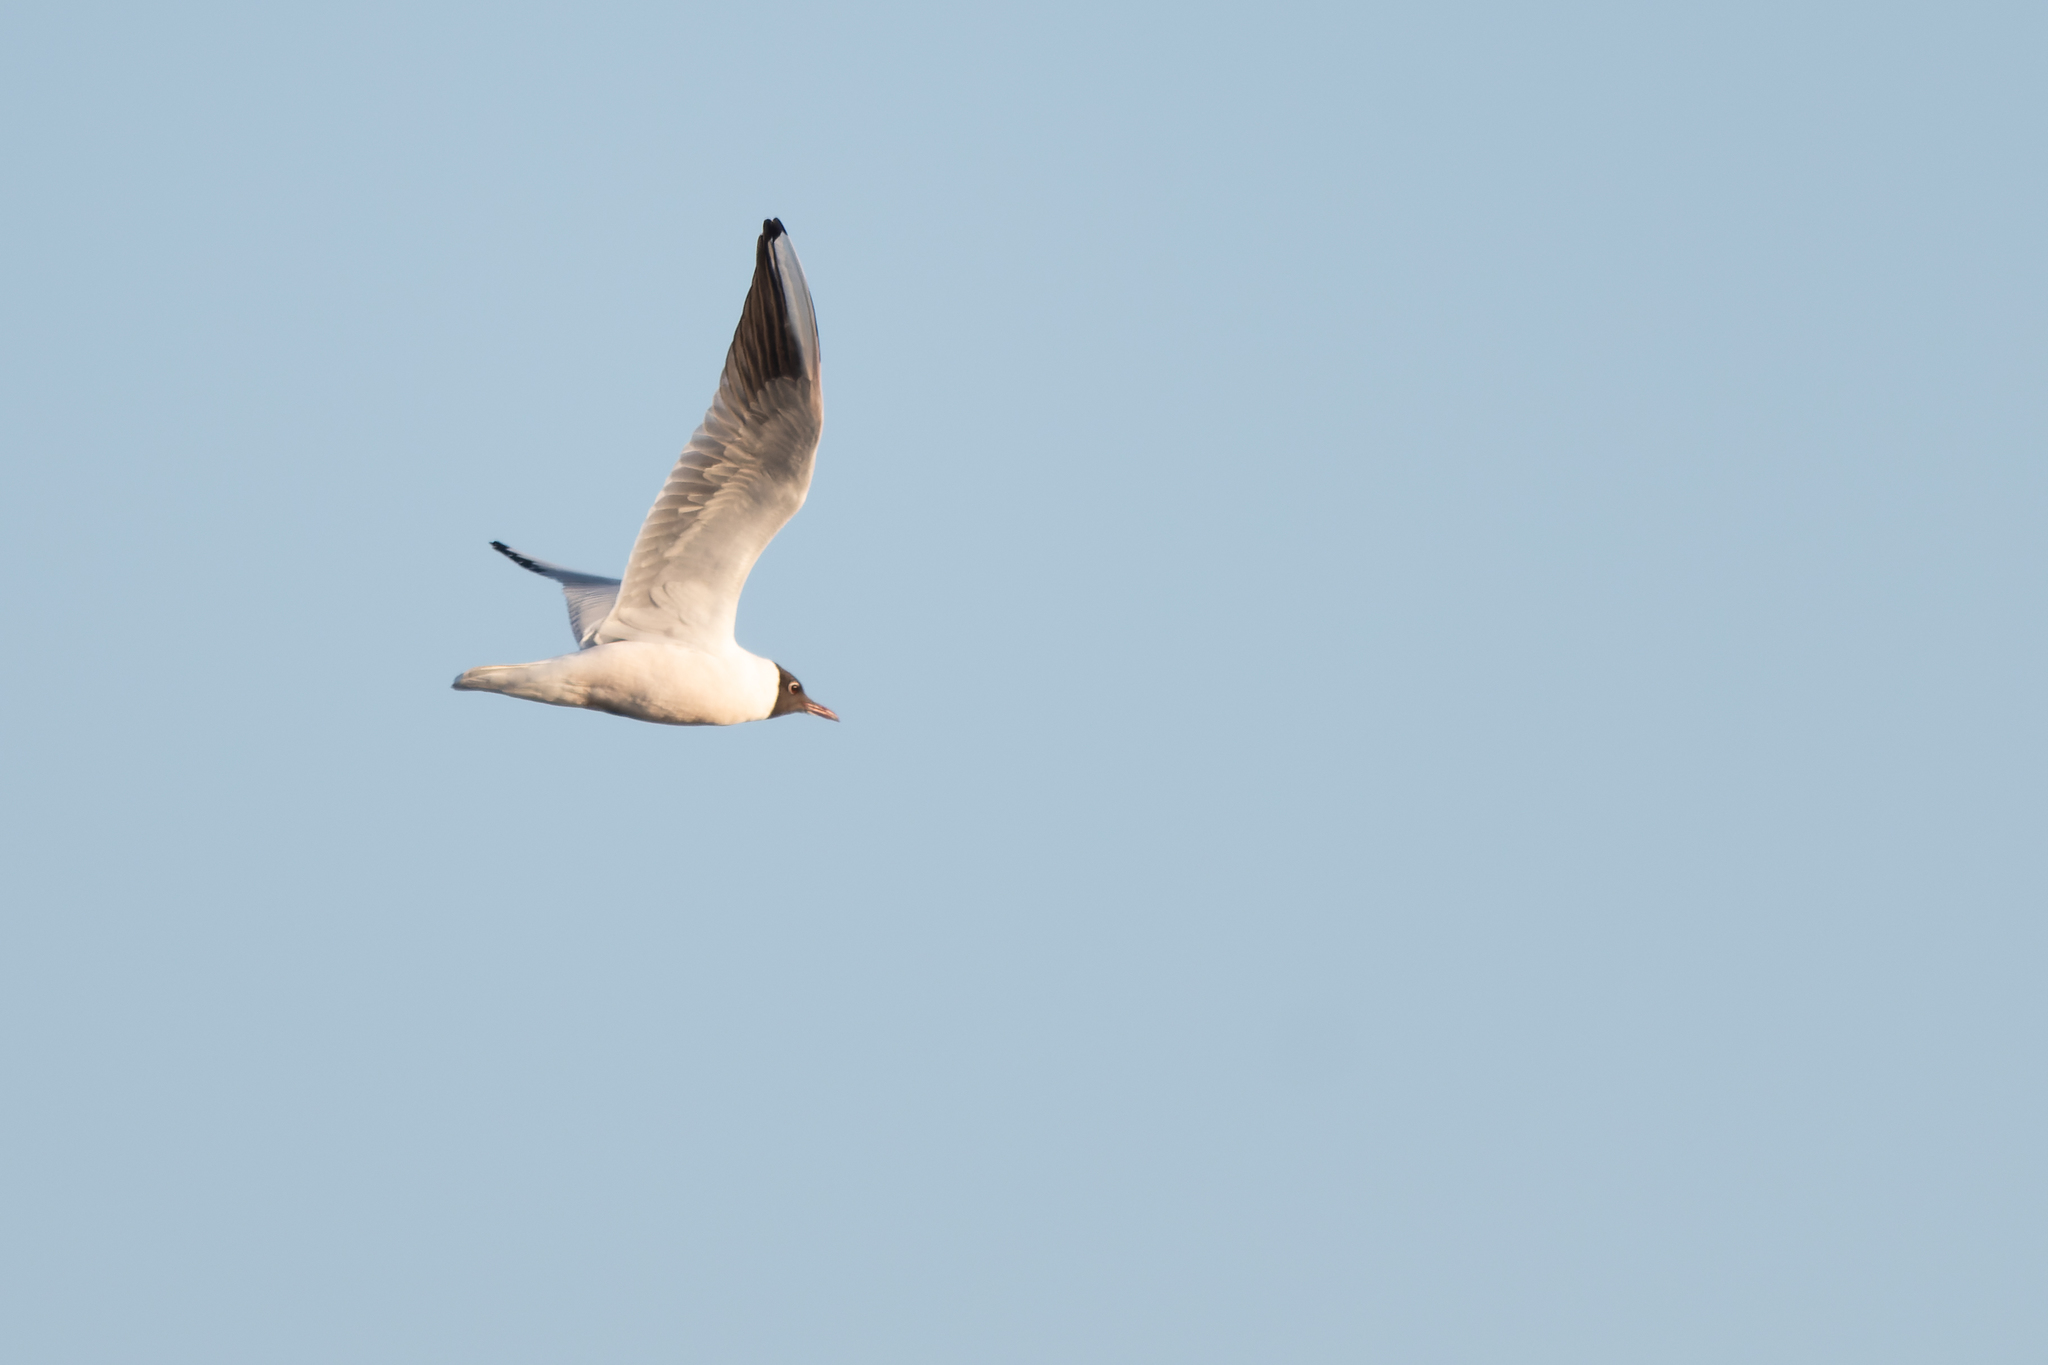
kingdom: Animalia
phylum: Chordata
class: Aves
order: Charadriiformes
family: Laridae
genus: Chroicocephalus
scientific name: Chroicocephalus ridibundus
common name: Black-headed gull
